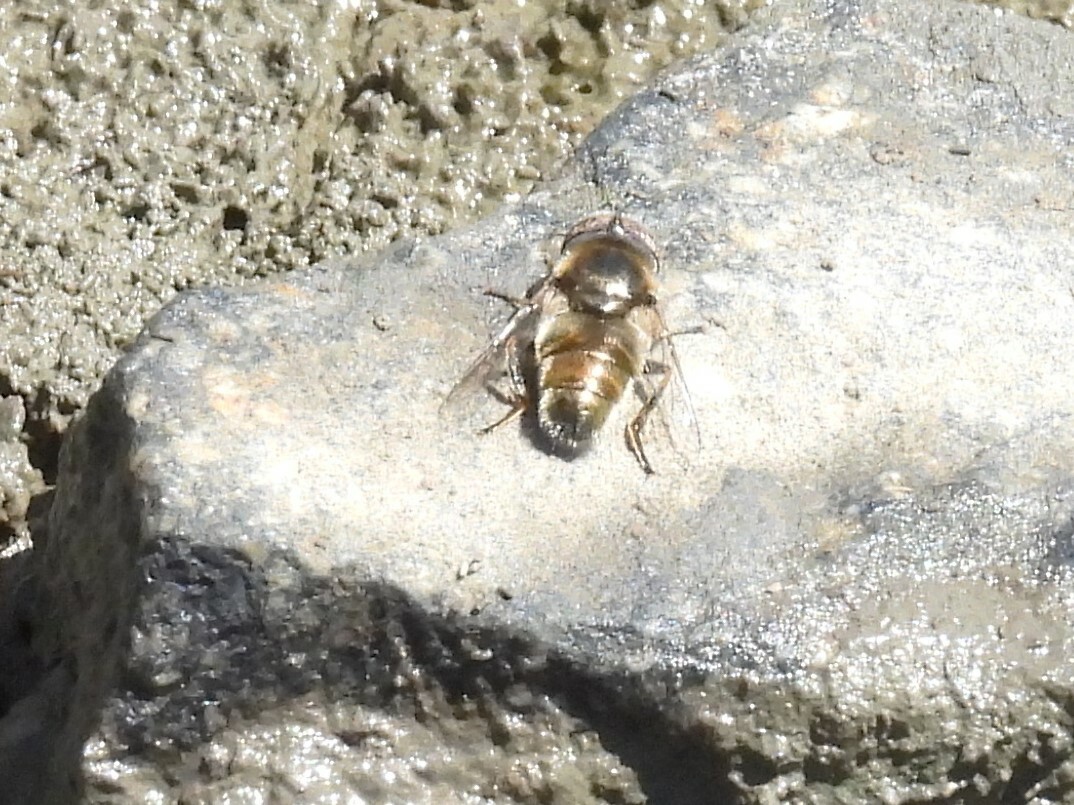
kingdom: Animalia
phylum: Arthropoda
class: Insecta
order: Diptera
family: Syrphidae
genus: Eristalinus
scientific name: Eristalinus aeneus
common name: Syrphid fly
